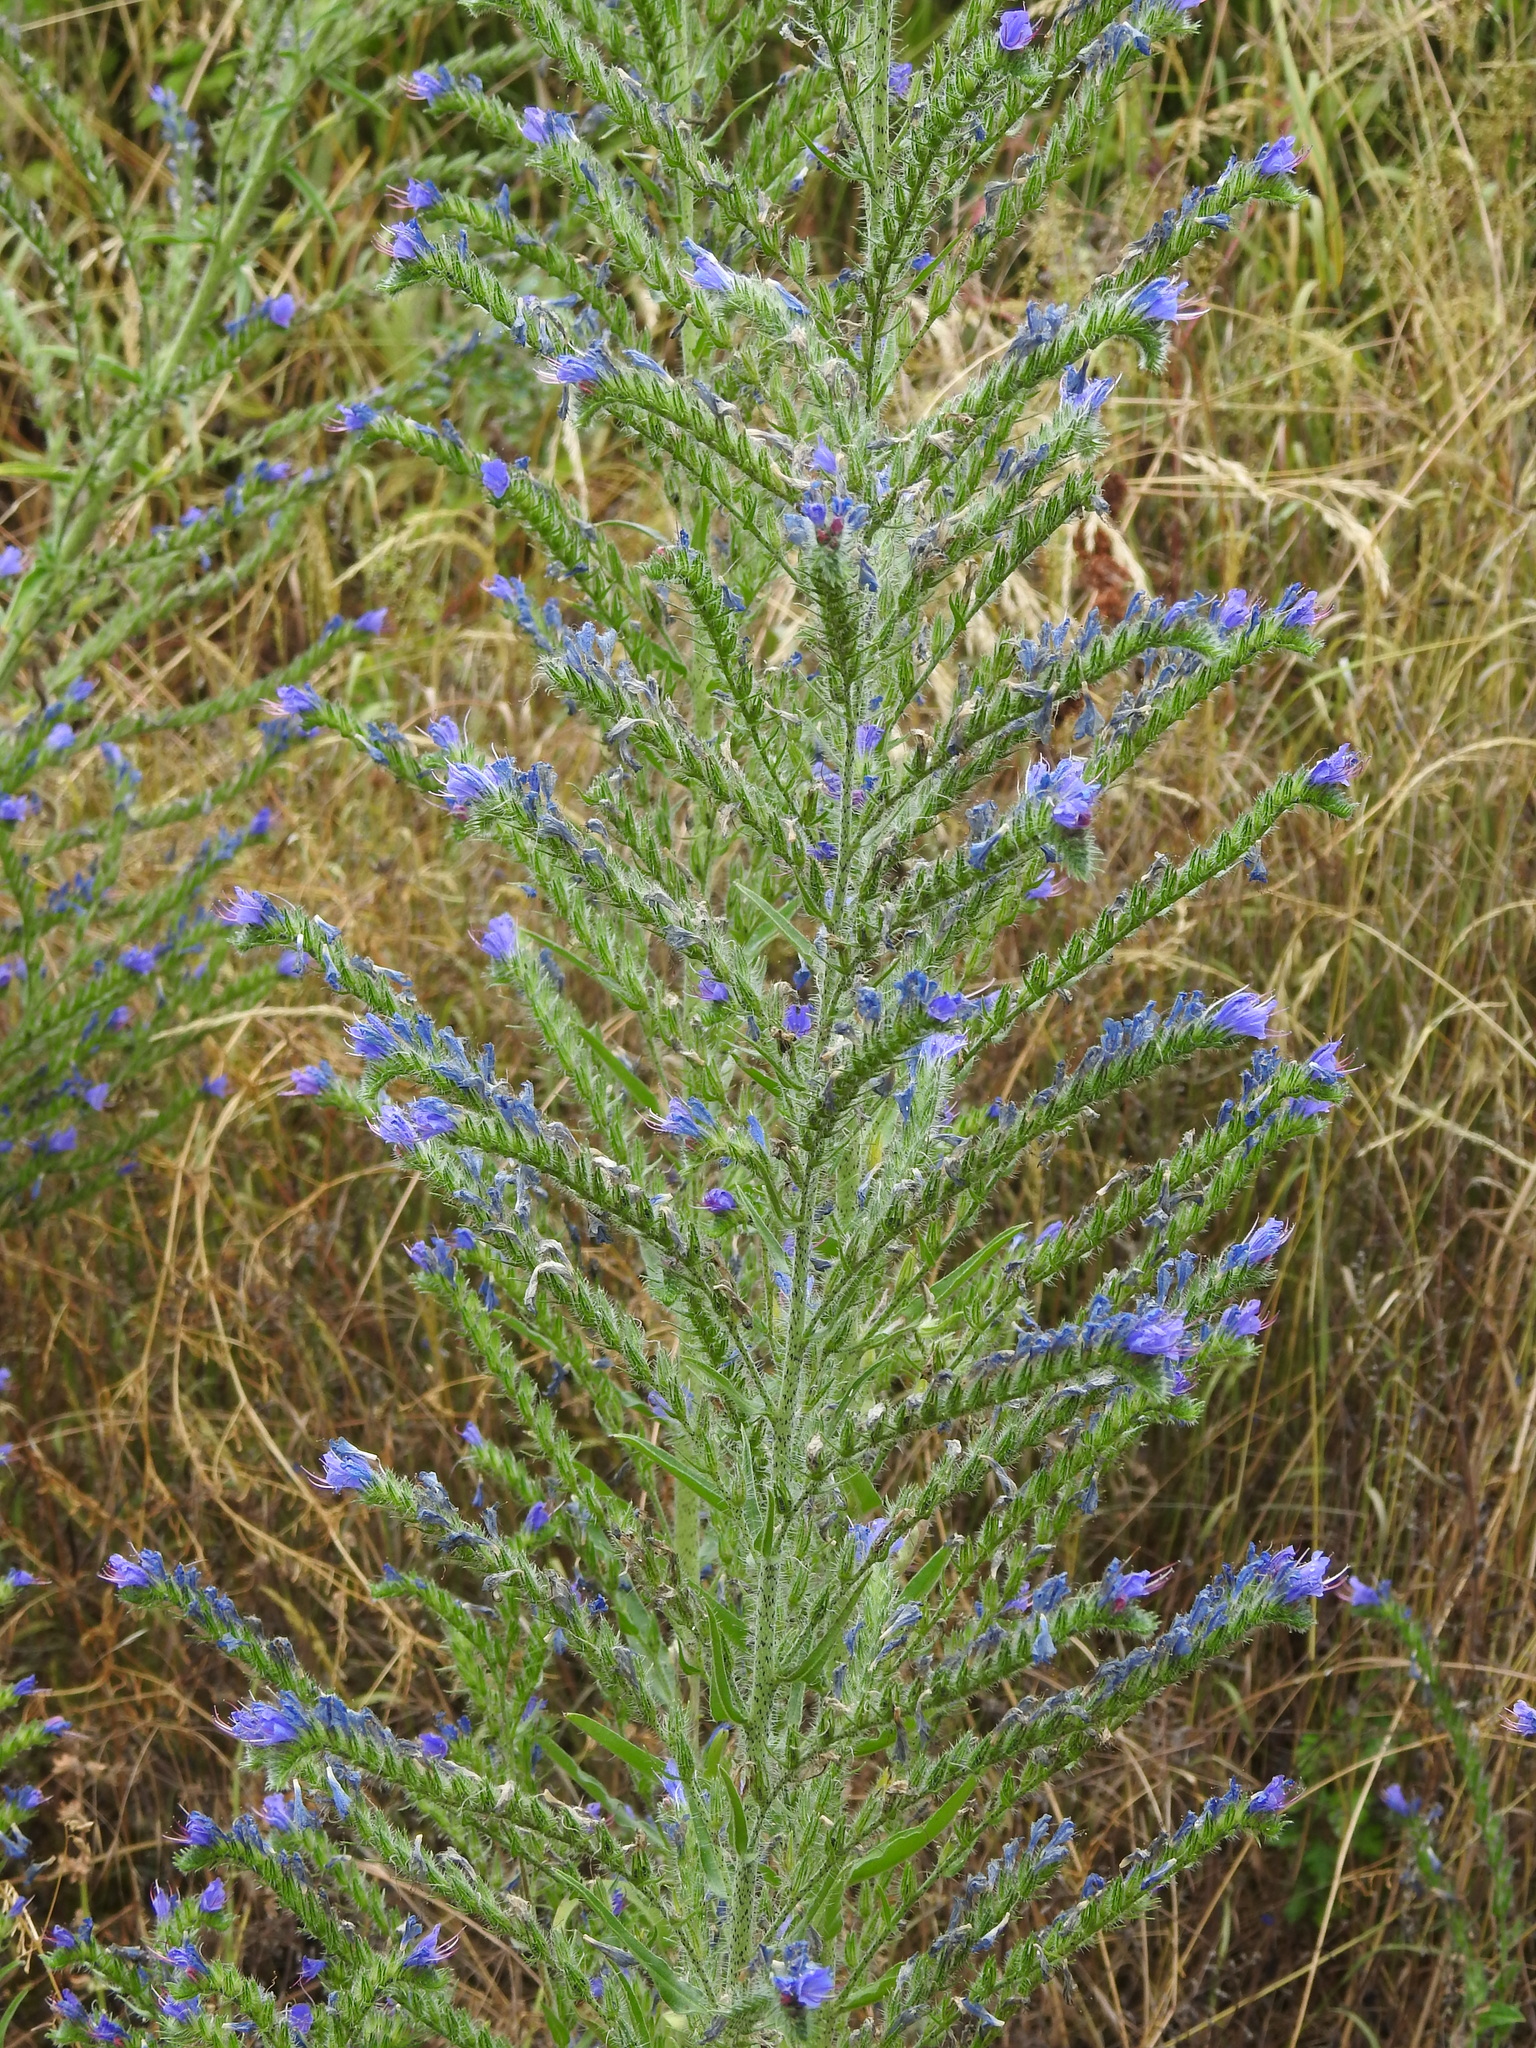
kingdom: Plantae
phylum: Tracheophyta
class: Magnoliopsida
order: Boraginales
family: Boraginaceae
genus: Echium
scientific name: Echium vulgare
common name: Common viper's bugloss
